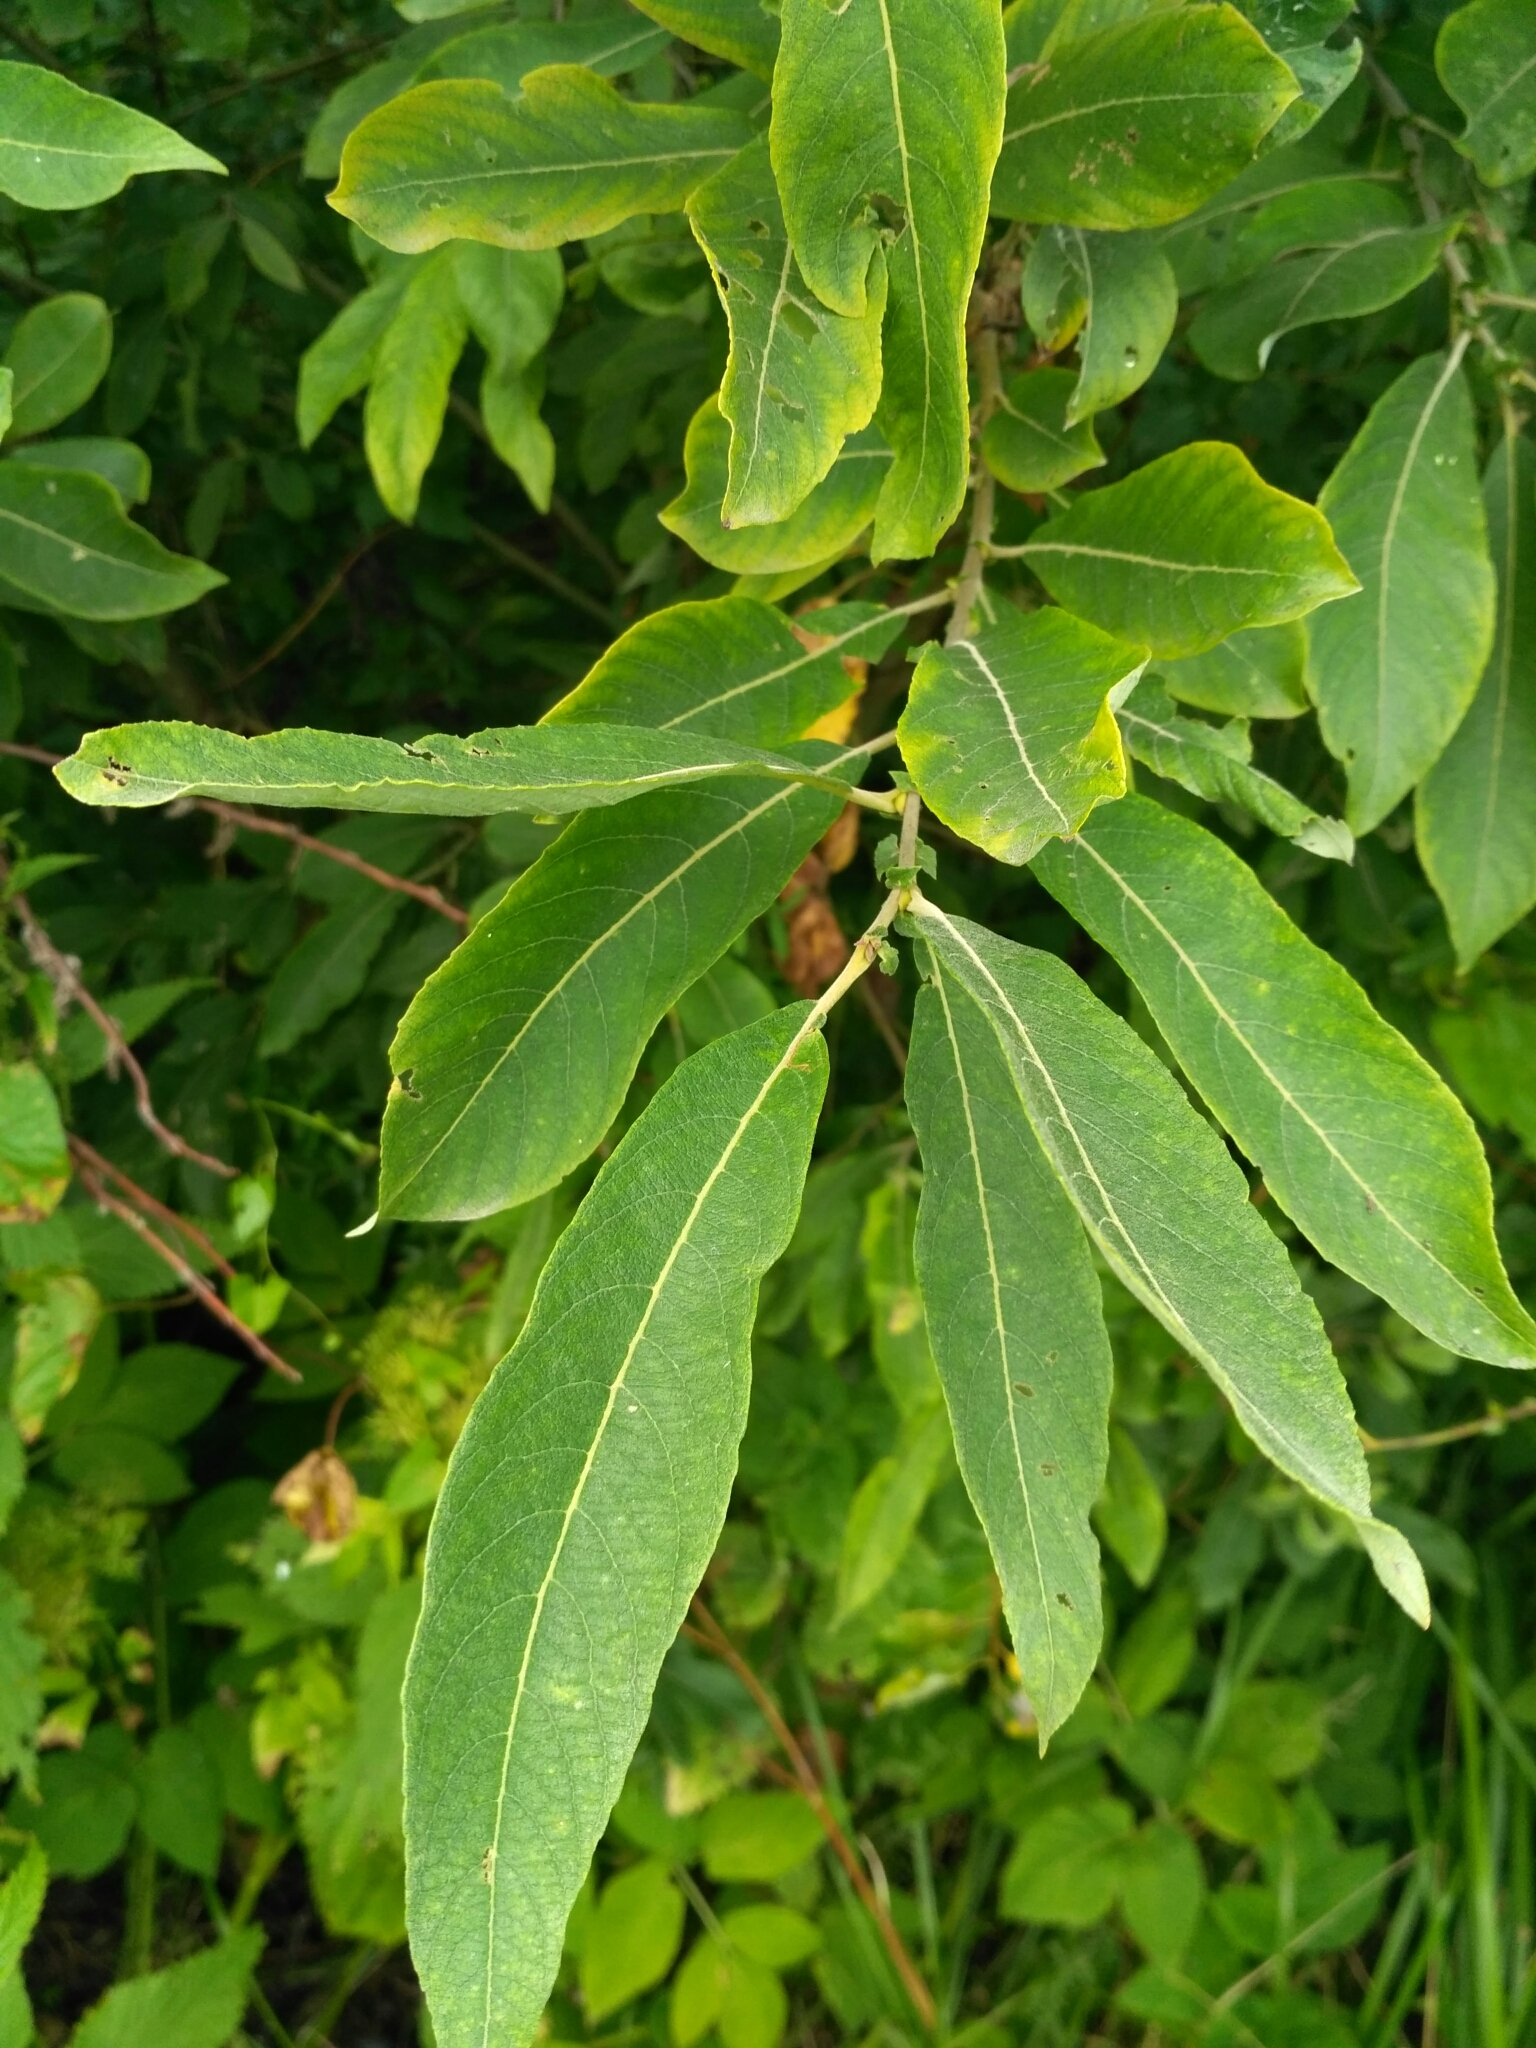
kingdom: Plantae
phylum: Tracheophyta
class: Magnoliopsida
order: Malpighiales
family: Salicaceae
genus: Salix
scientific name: Salix cinerea
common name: Common sallow
